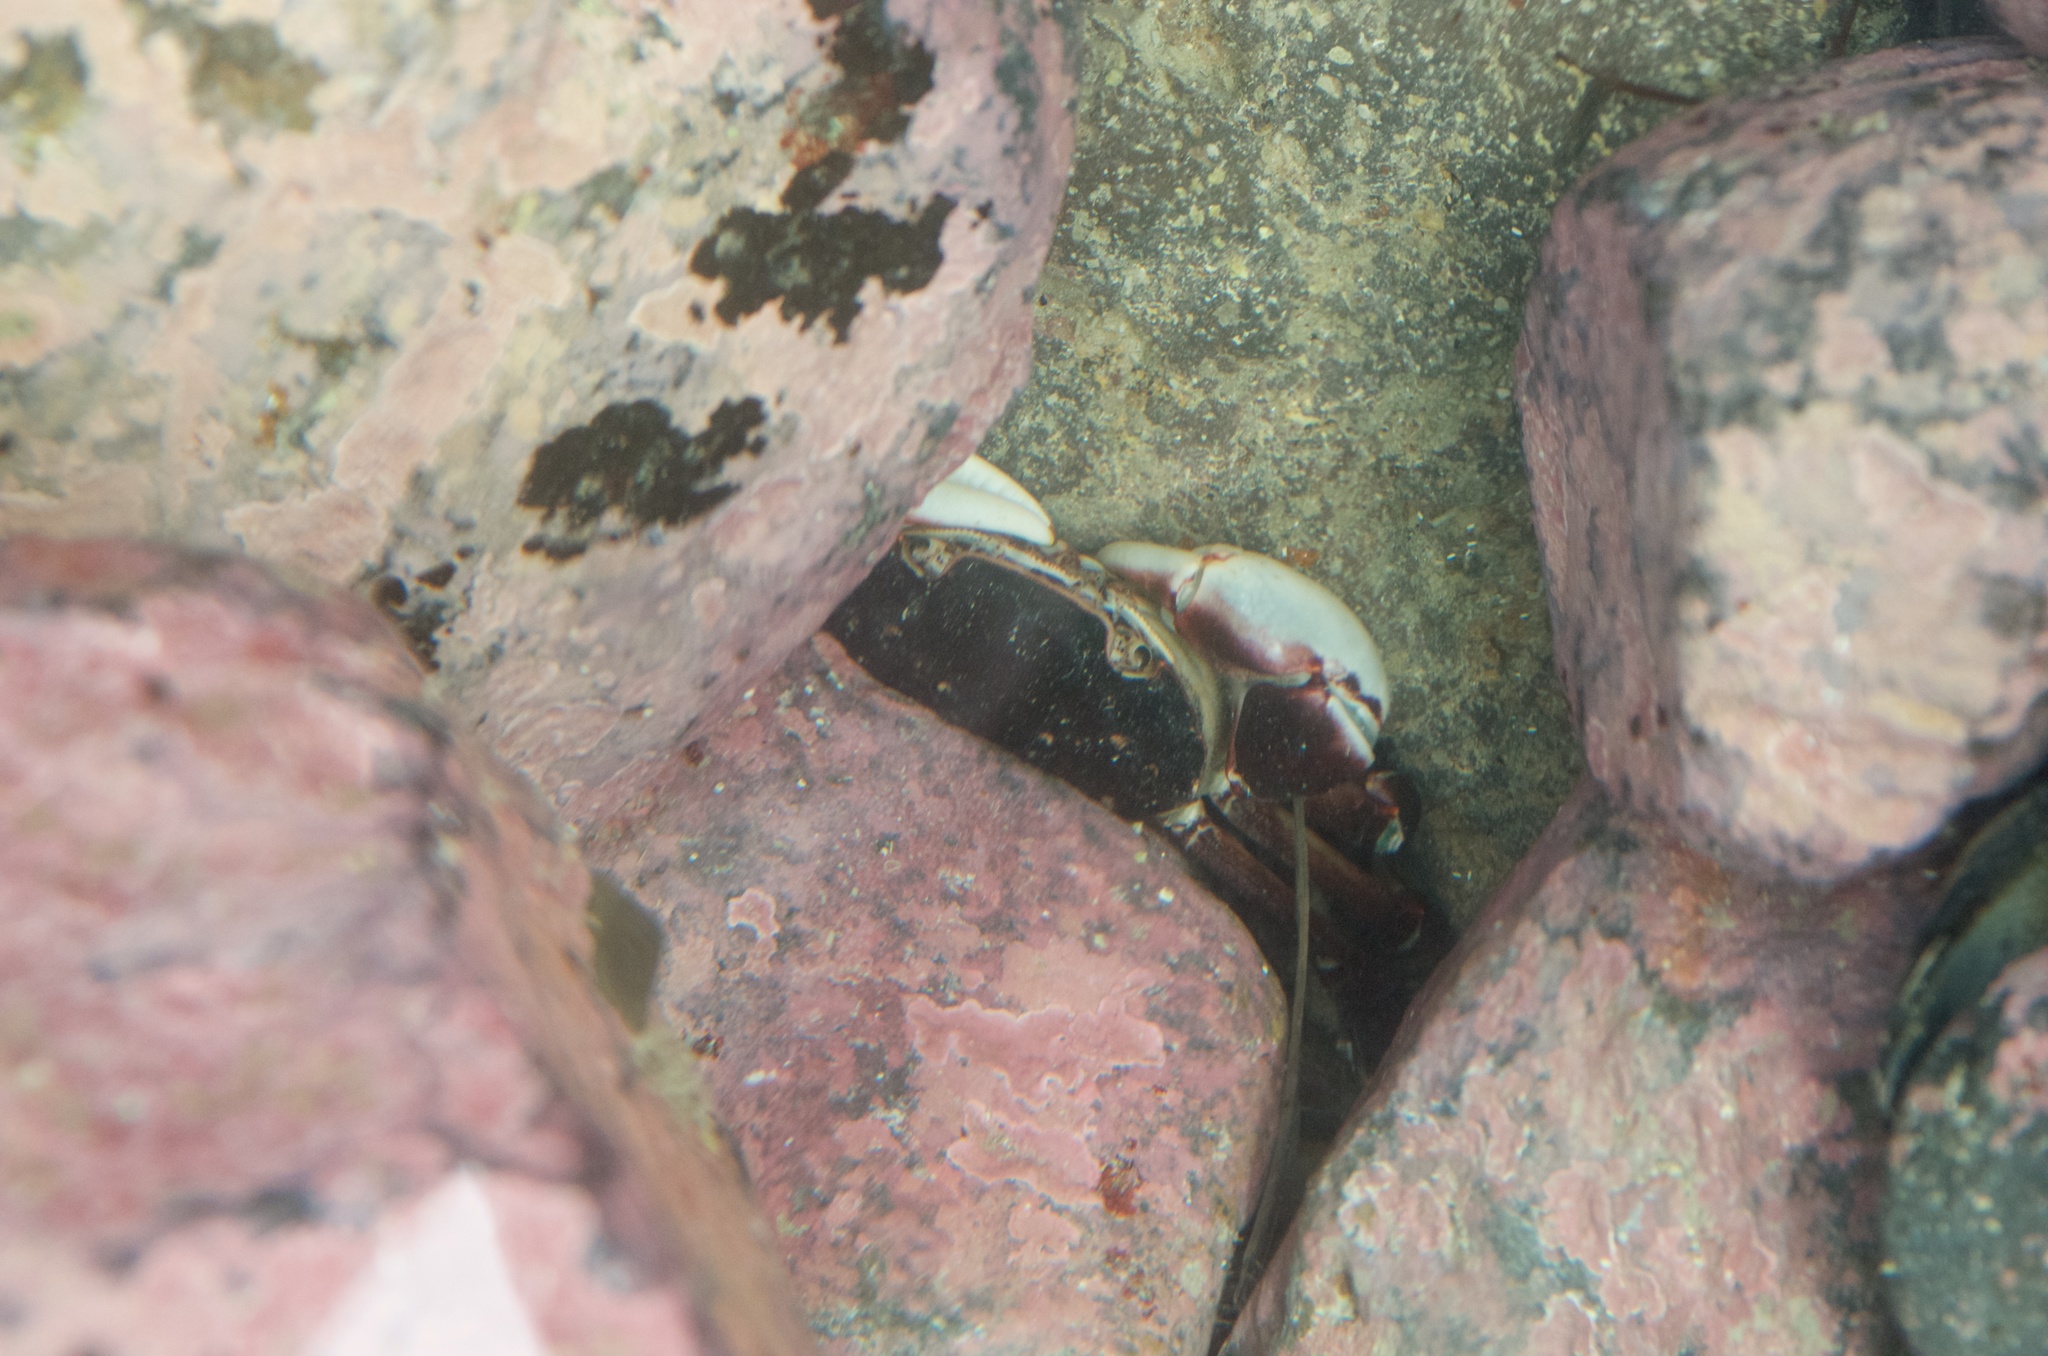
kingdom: Animalia
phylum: Arthropoda
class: Malacostraca
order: Decapoda
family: Varunidae
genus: Hemigrapsus
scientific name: Hemigrapsus sexdentatus
